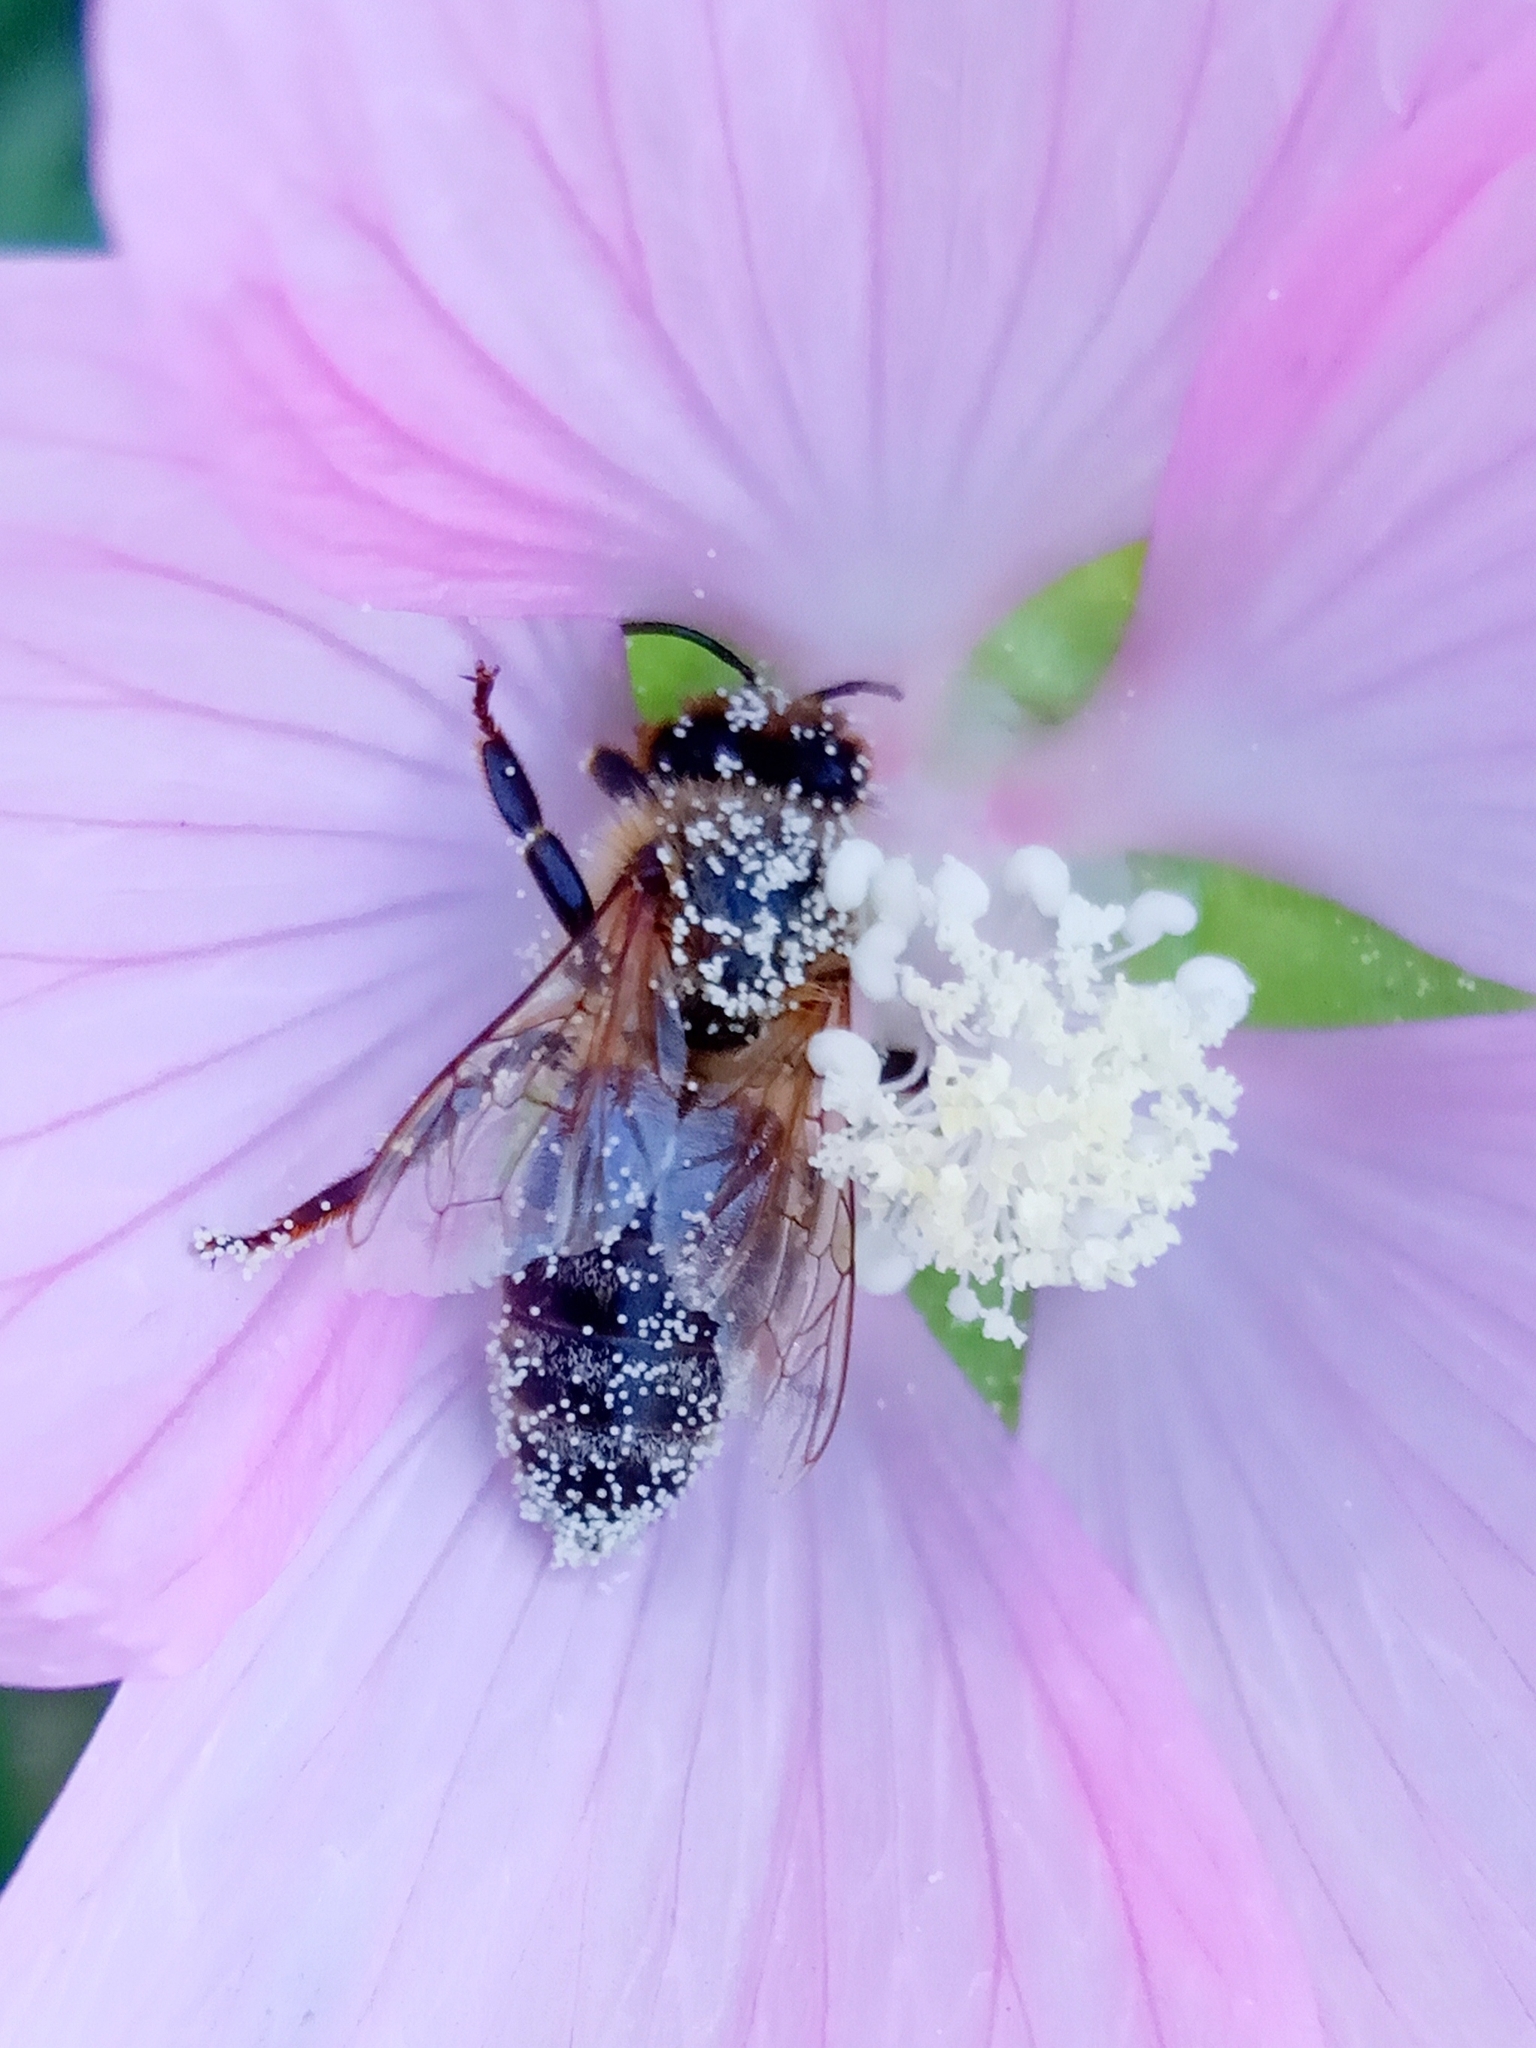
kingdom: Animalia
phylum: Arthropoda
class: Insecta
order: Hymenoptera
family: Apidae
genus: Apis
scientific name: Apis mellifera
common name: Honey bee
